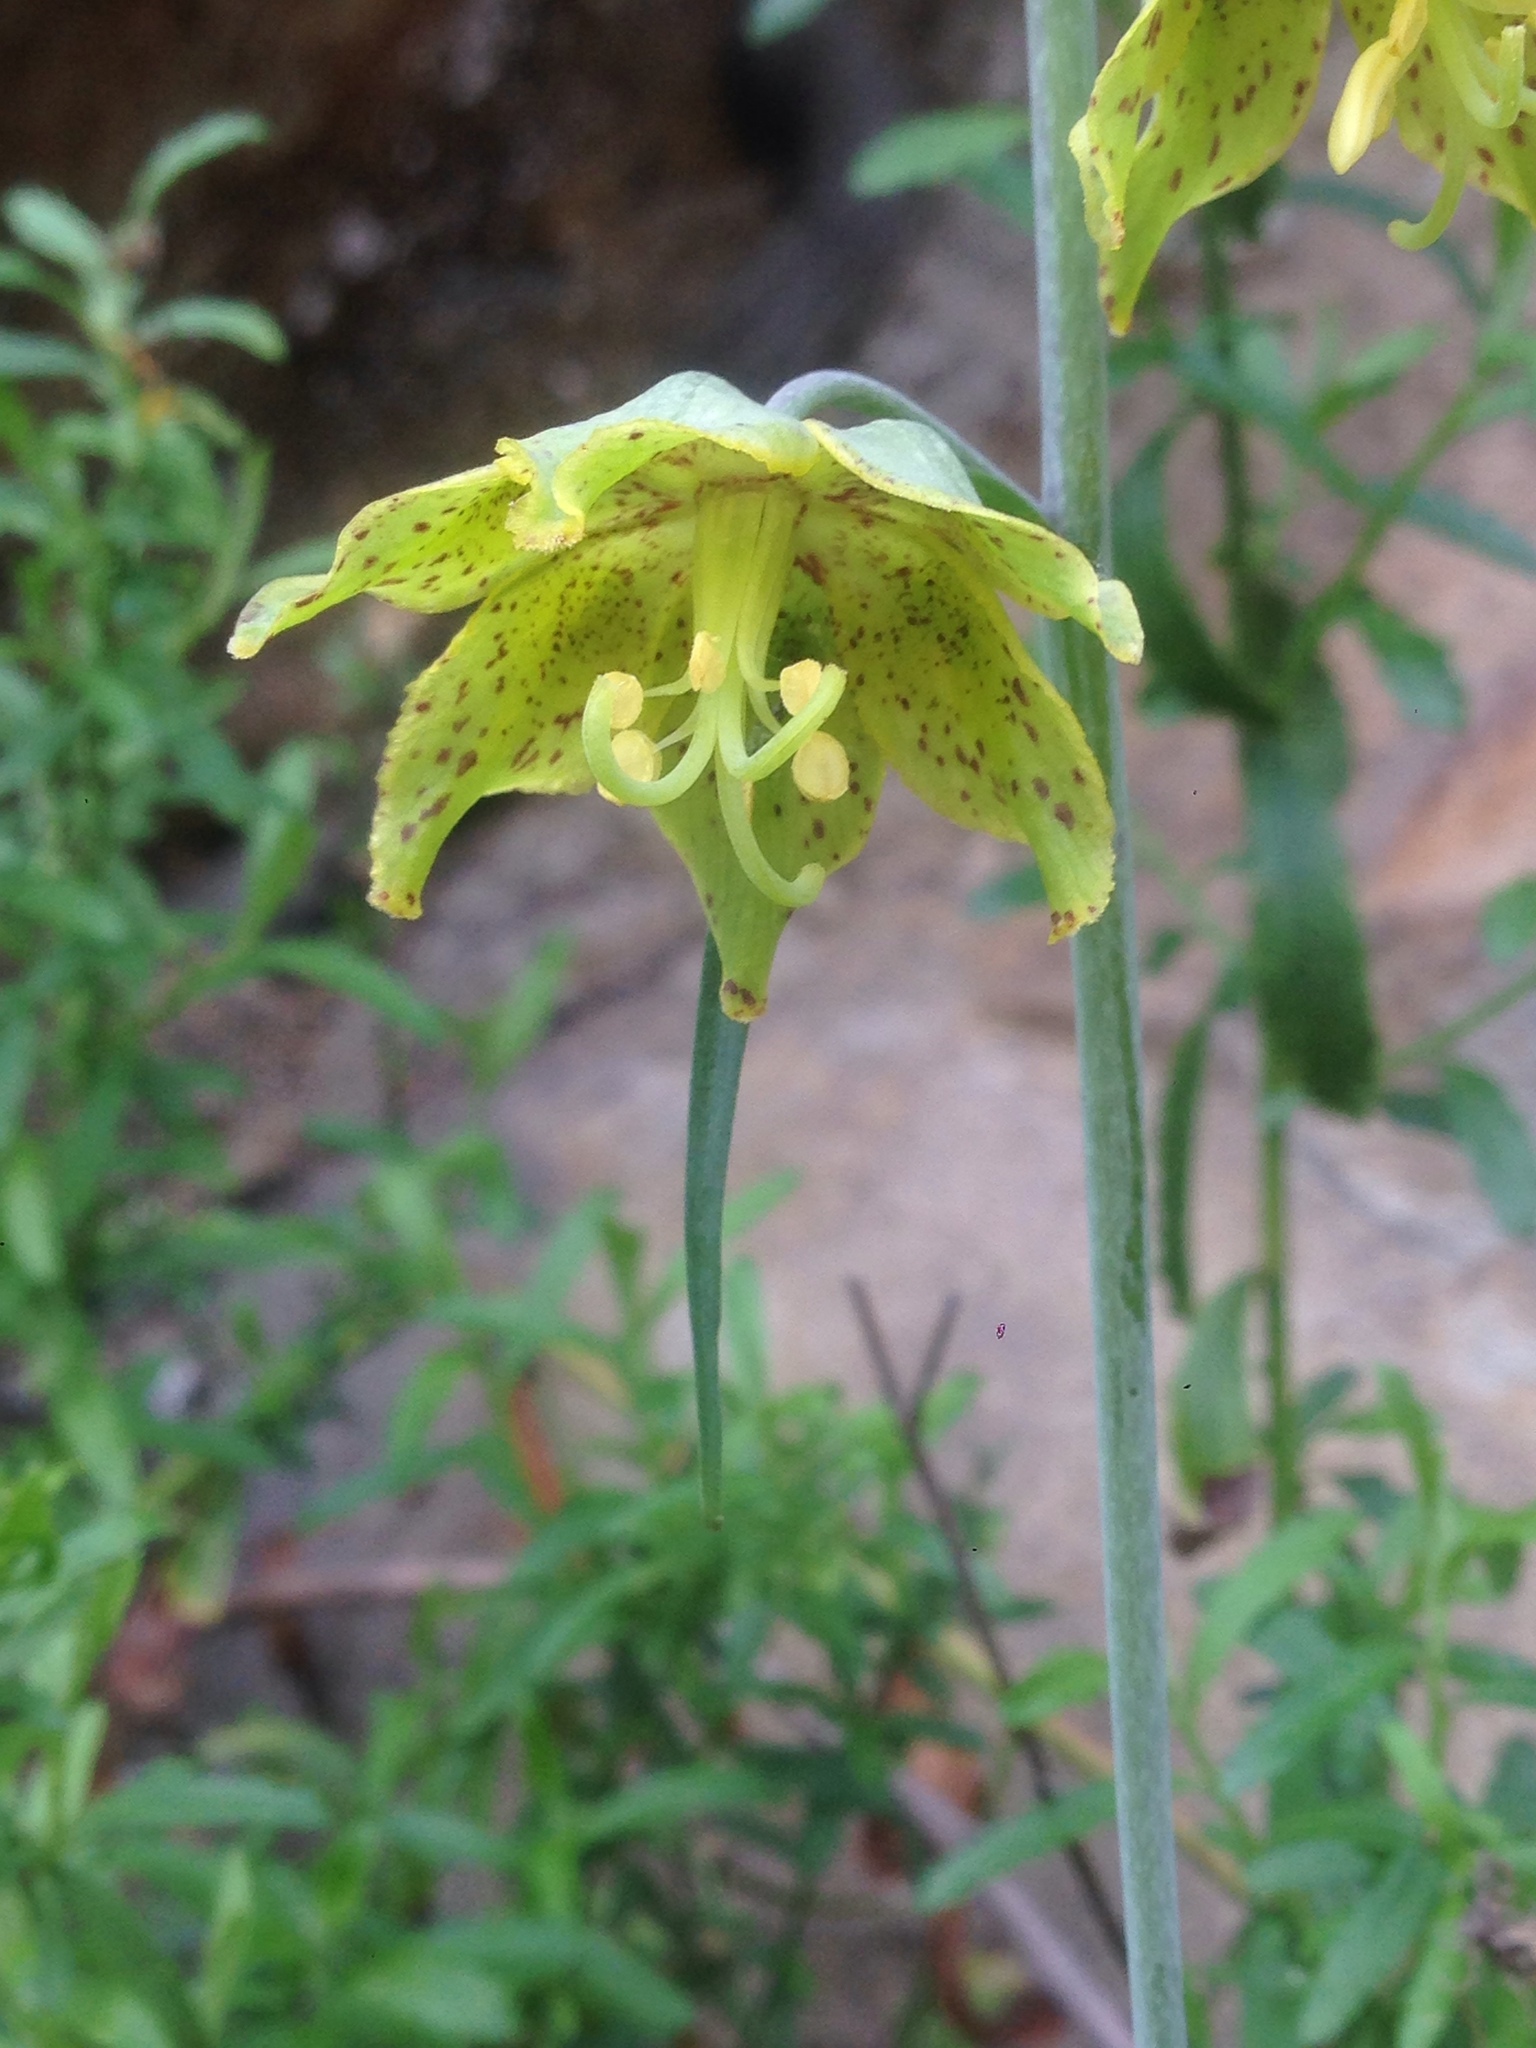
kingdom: Plantae
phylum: Tracheophyta
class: Liliopsida
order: Liliales
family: Liliaceae
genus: Fritillaria
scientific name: Fritillaria ojaiensis
